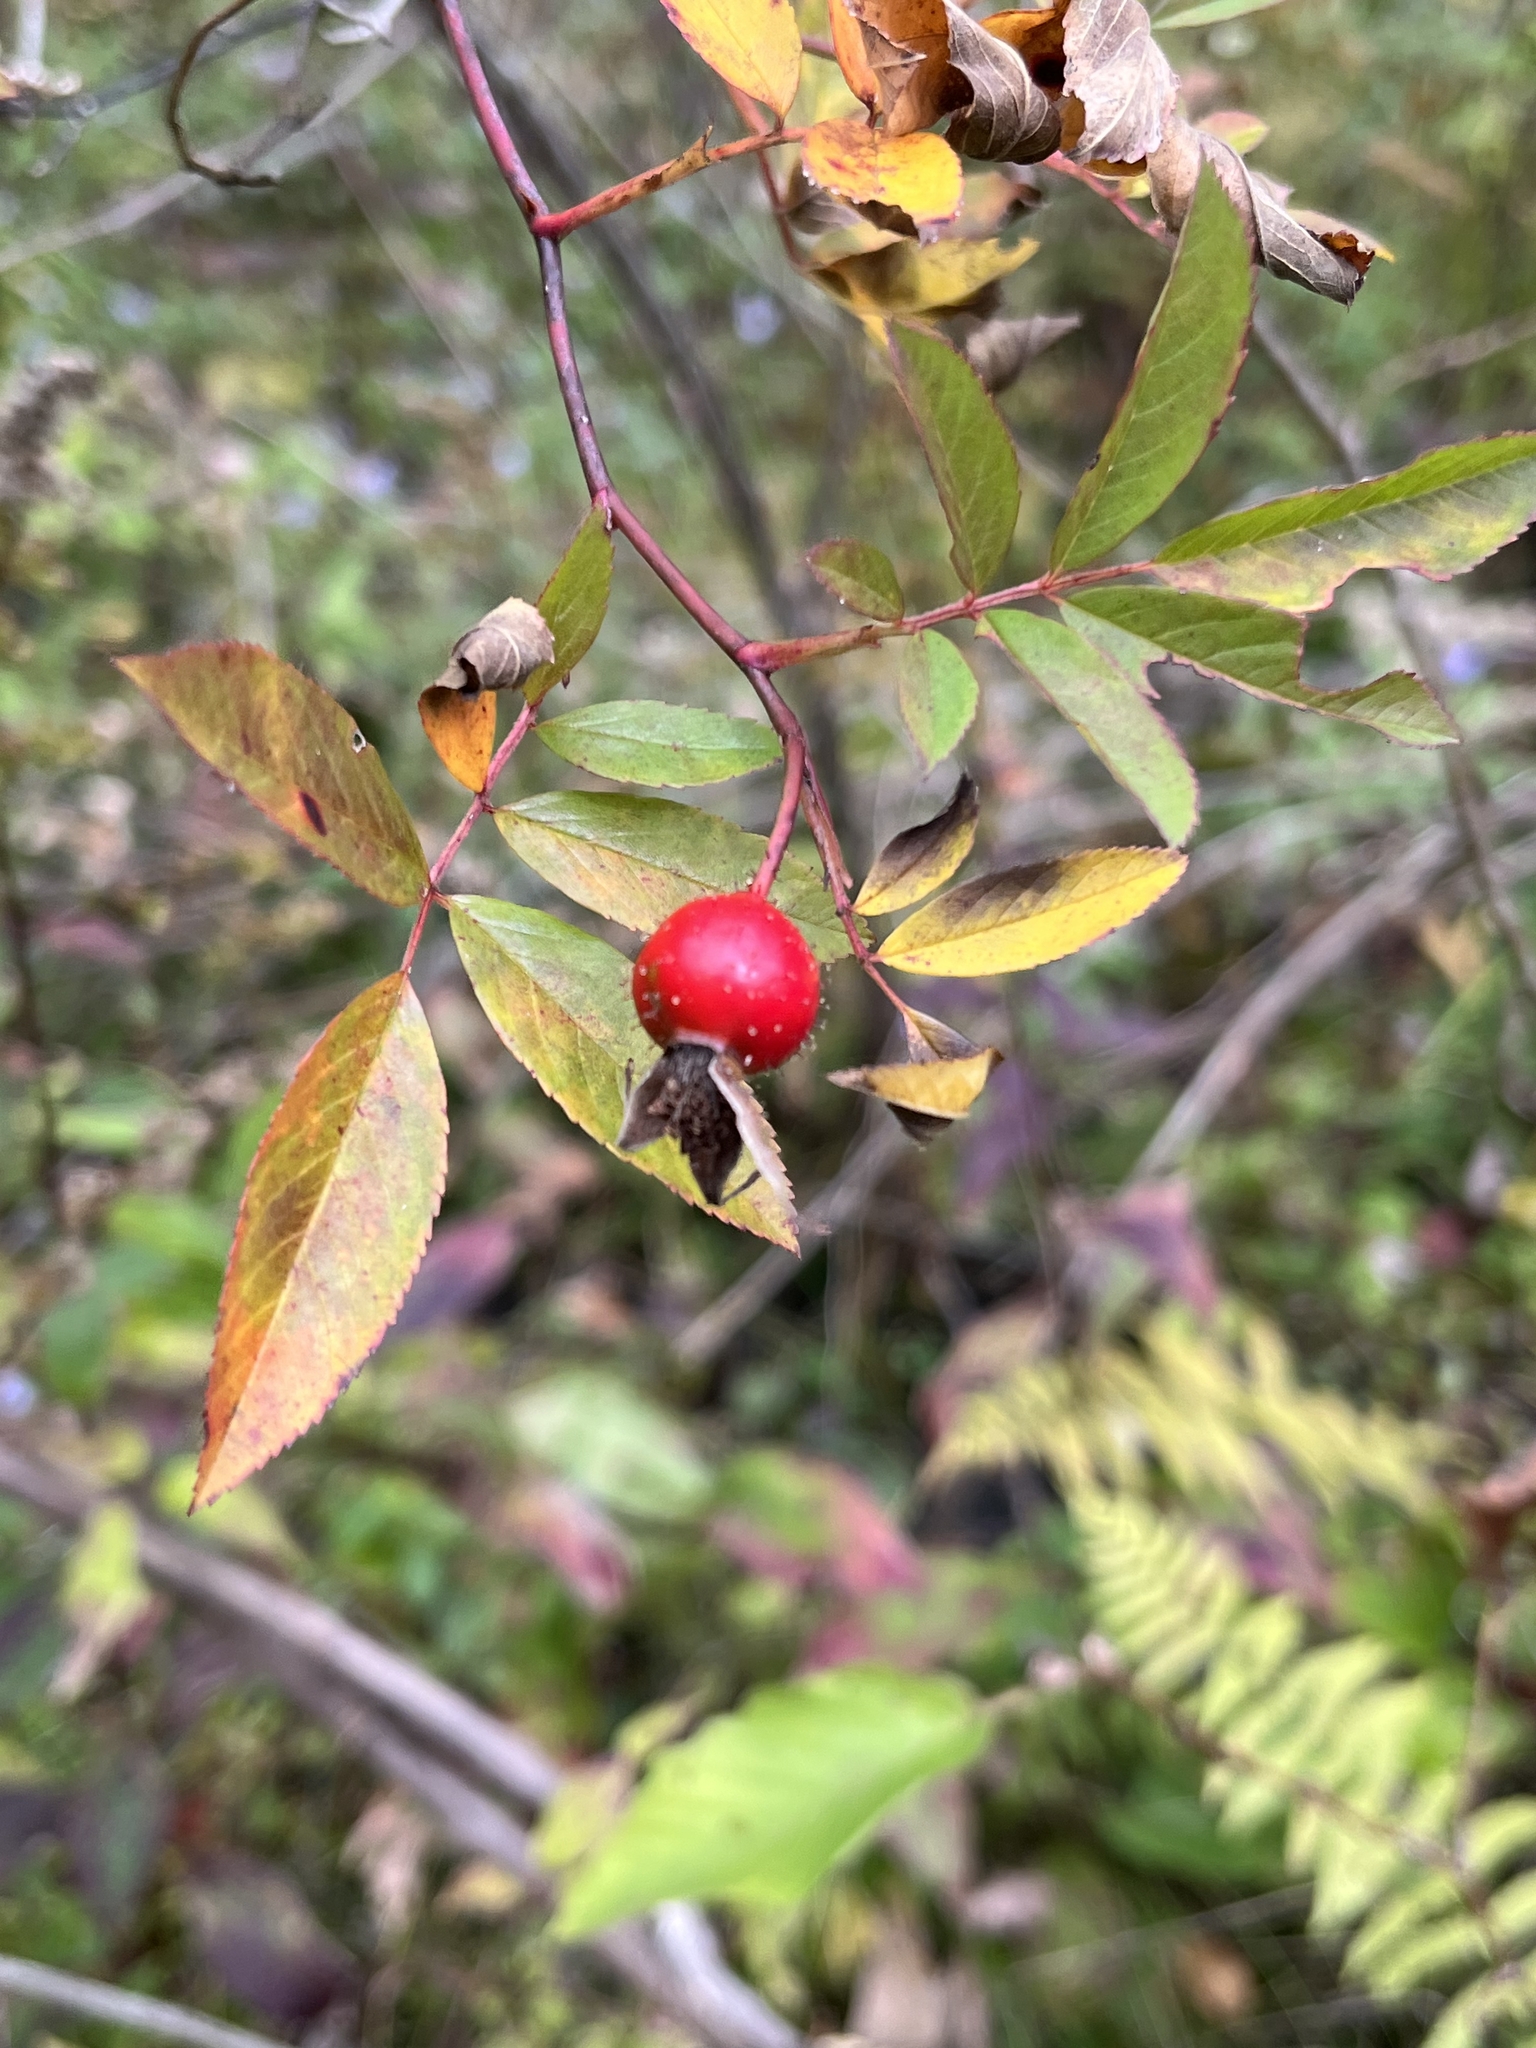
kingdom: Plantae
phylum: Tracheophyta
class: Magnoliopsida
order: Rosales
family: Rosaceae
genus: Rosa
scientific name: Rosa palustris
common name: Swamp rose
